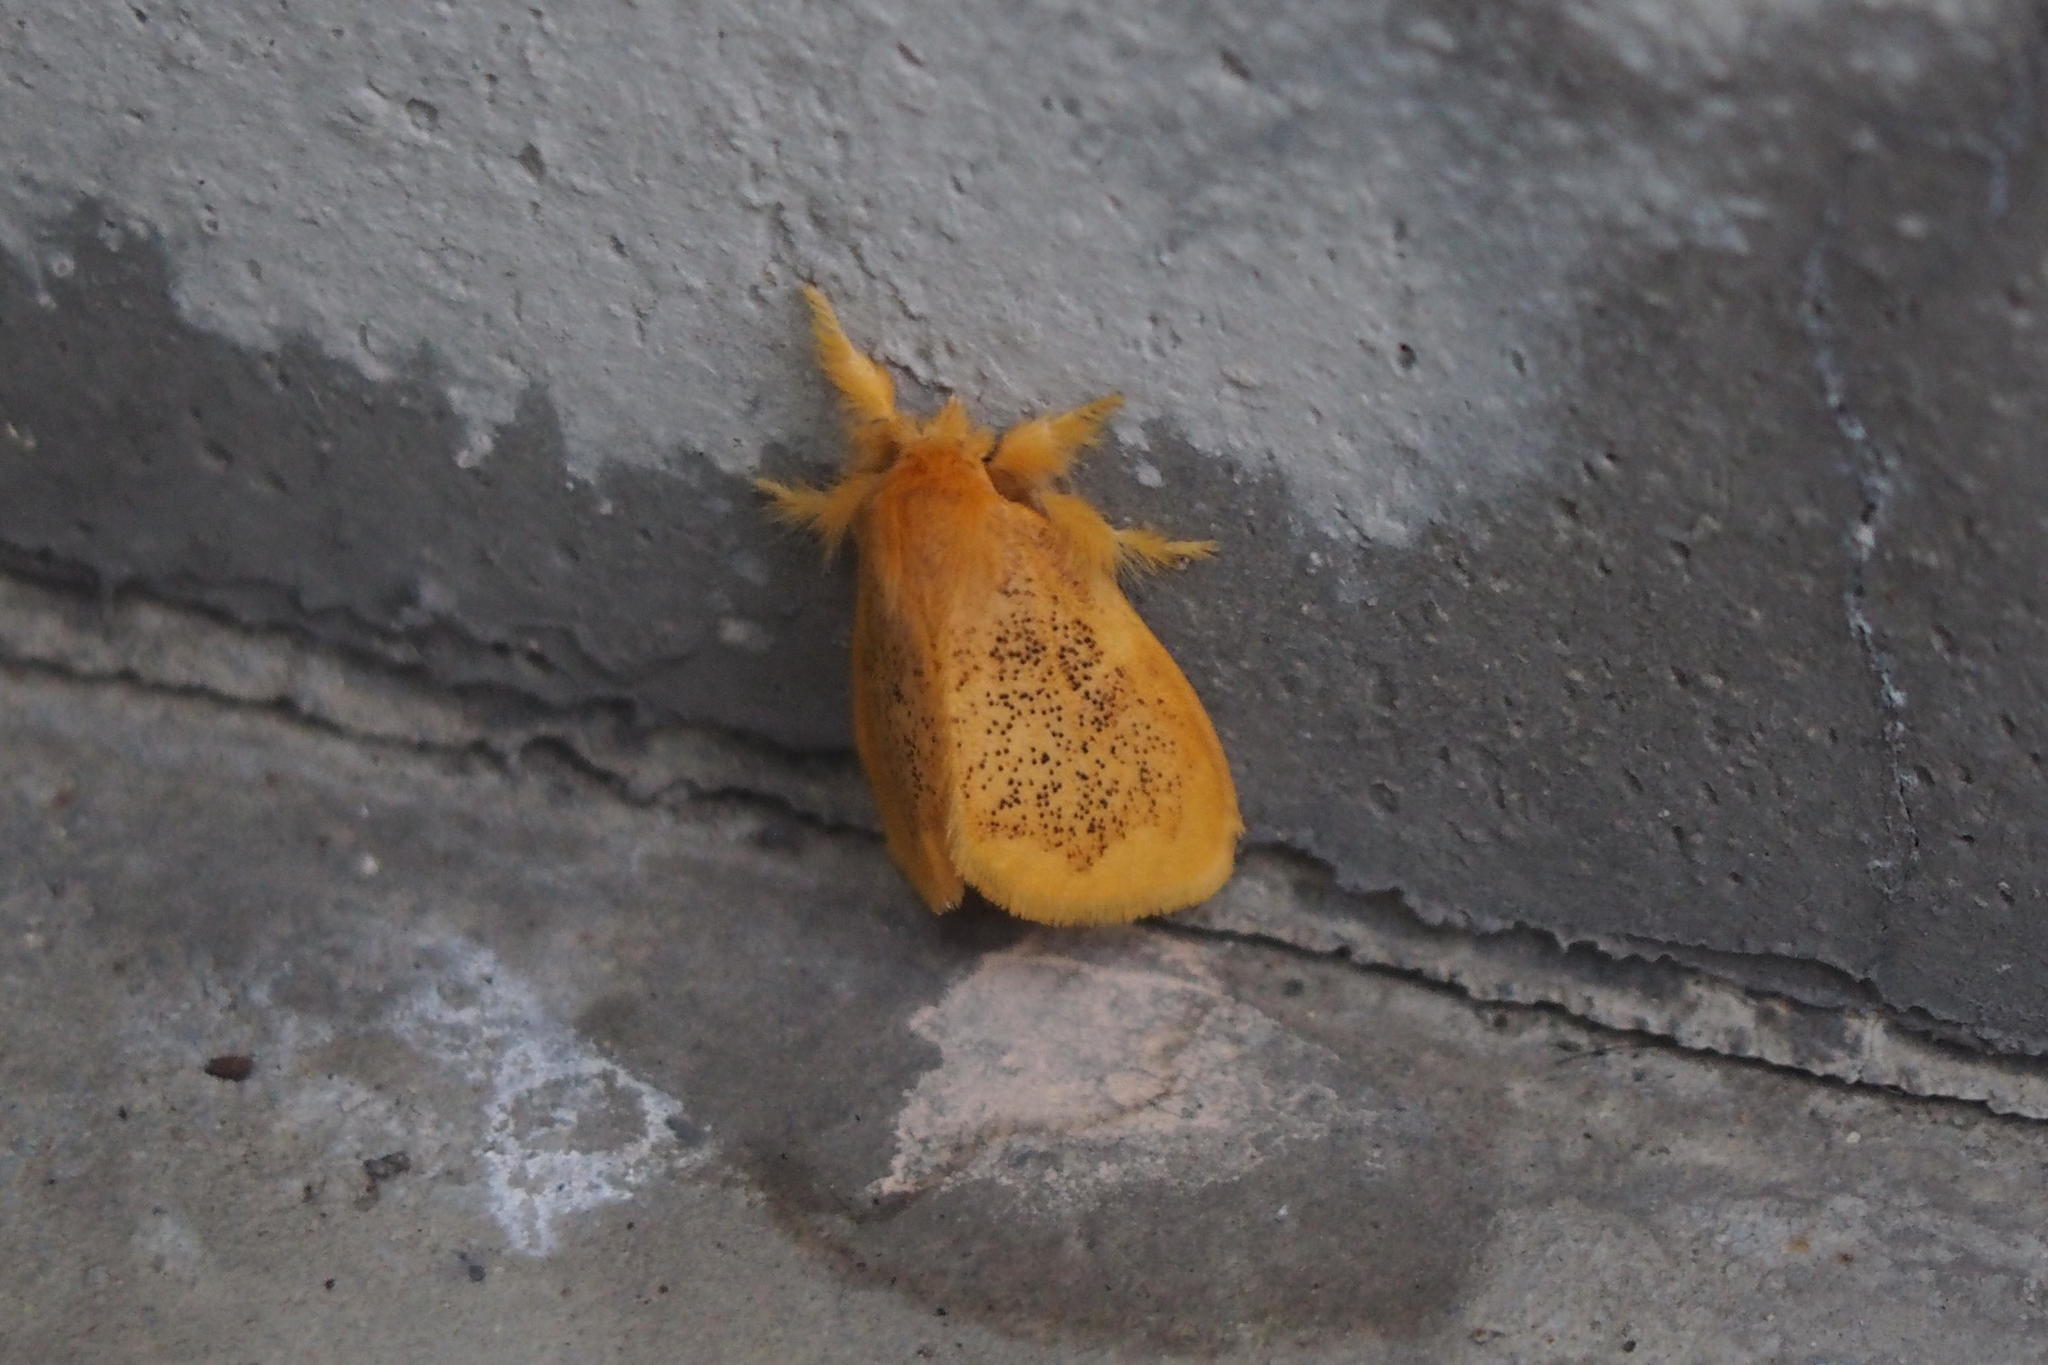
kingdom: Animalia
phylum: Arthropoda
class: Insecta
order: Lepidoptera
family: Erebidae
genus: Somena
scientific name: Somena
